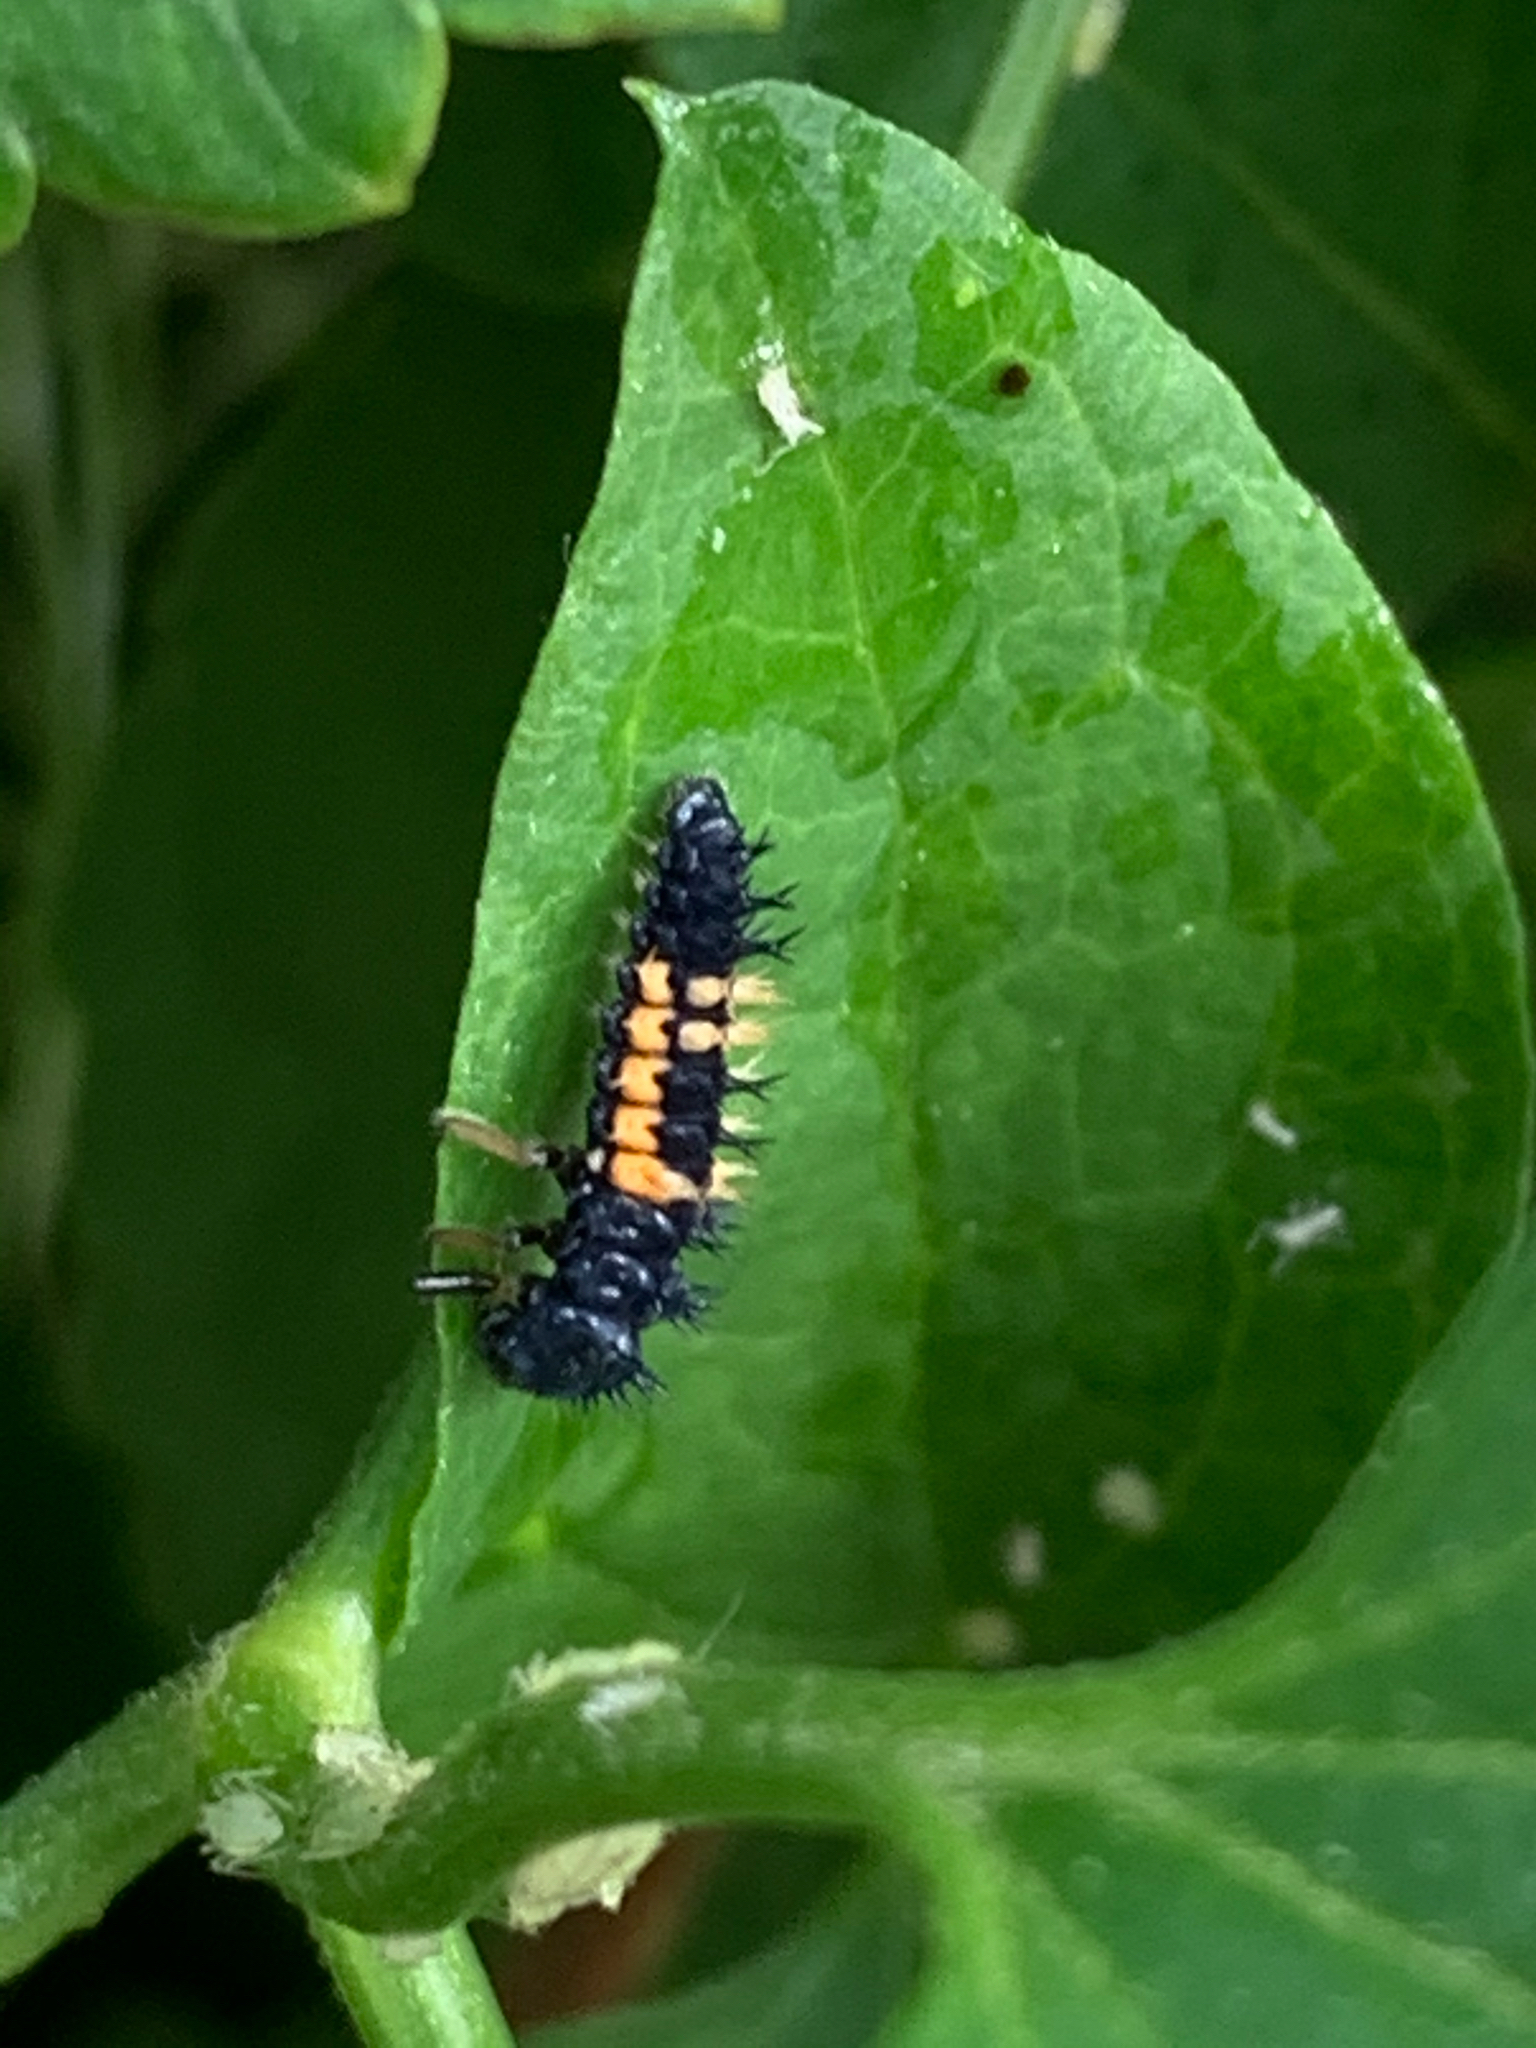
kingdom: Animalia
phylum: Arthropoda
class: Insecta
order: Coleoptera
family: Coccinellidae
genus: Harmonia
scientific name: Harmonia axyridis
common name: Harlequin ladybird
